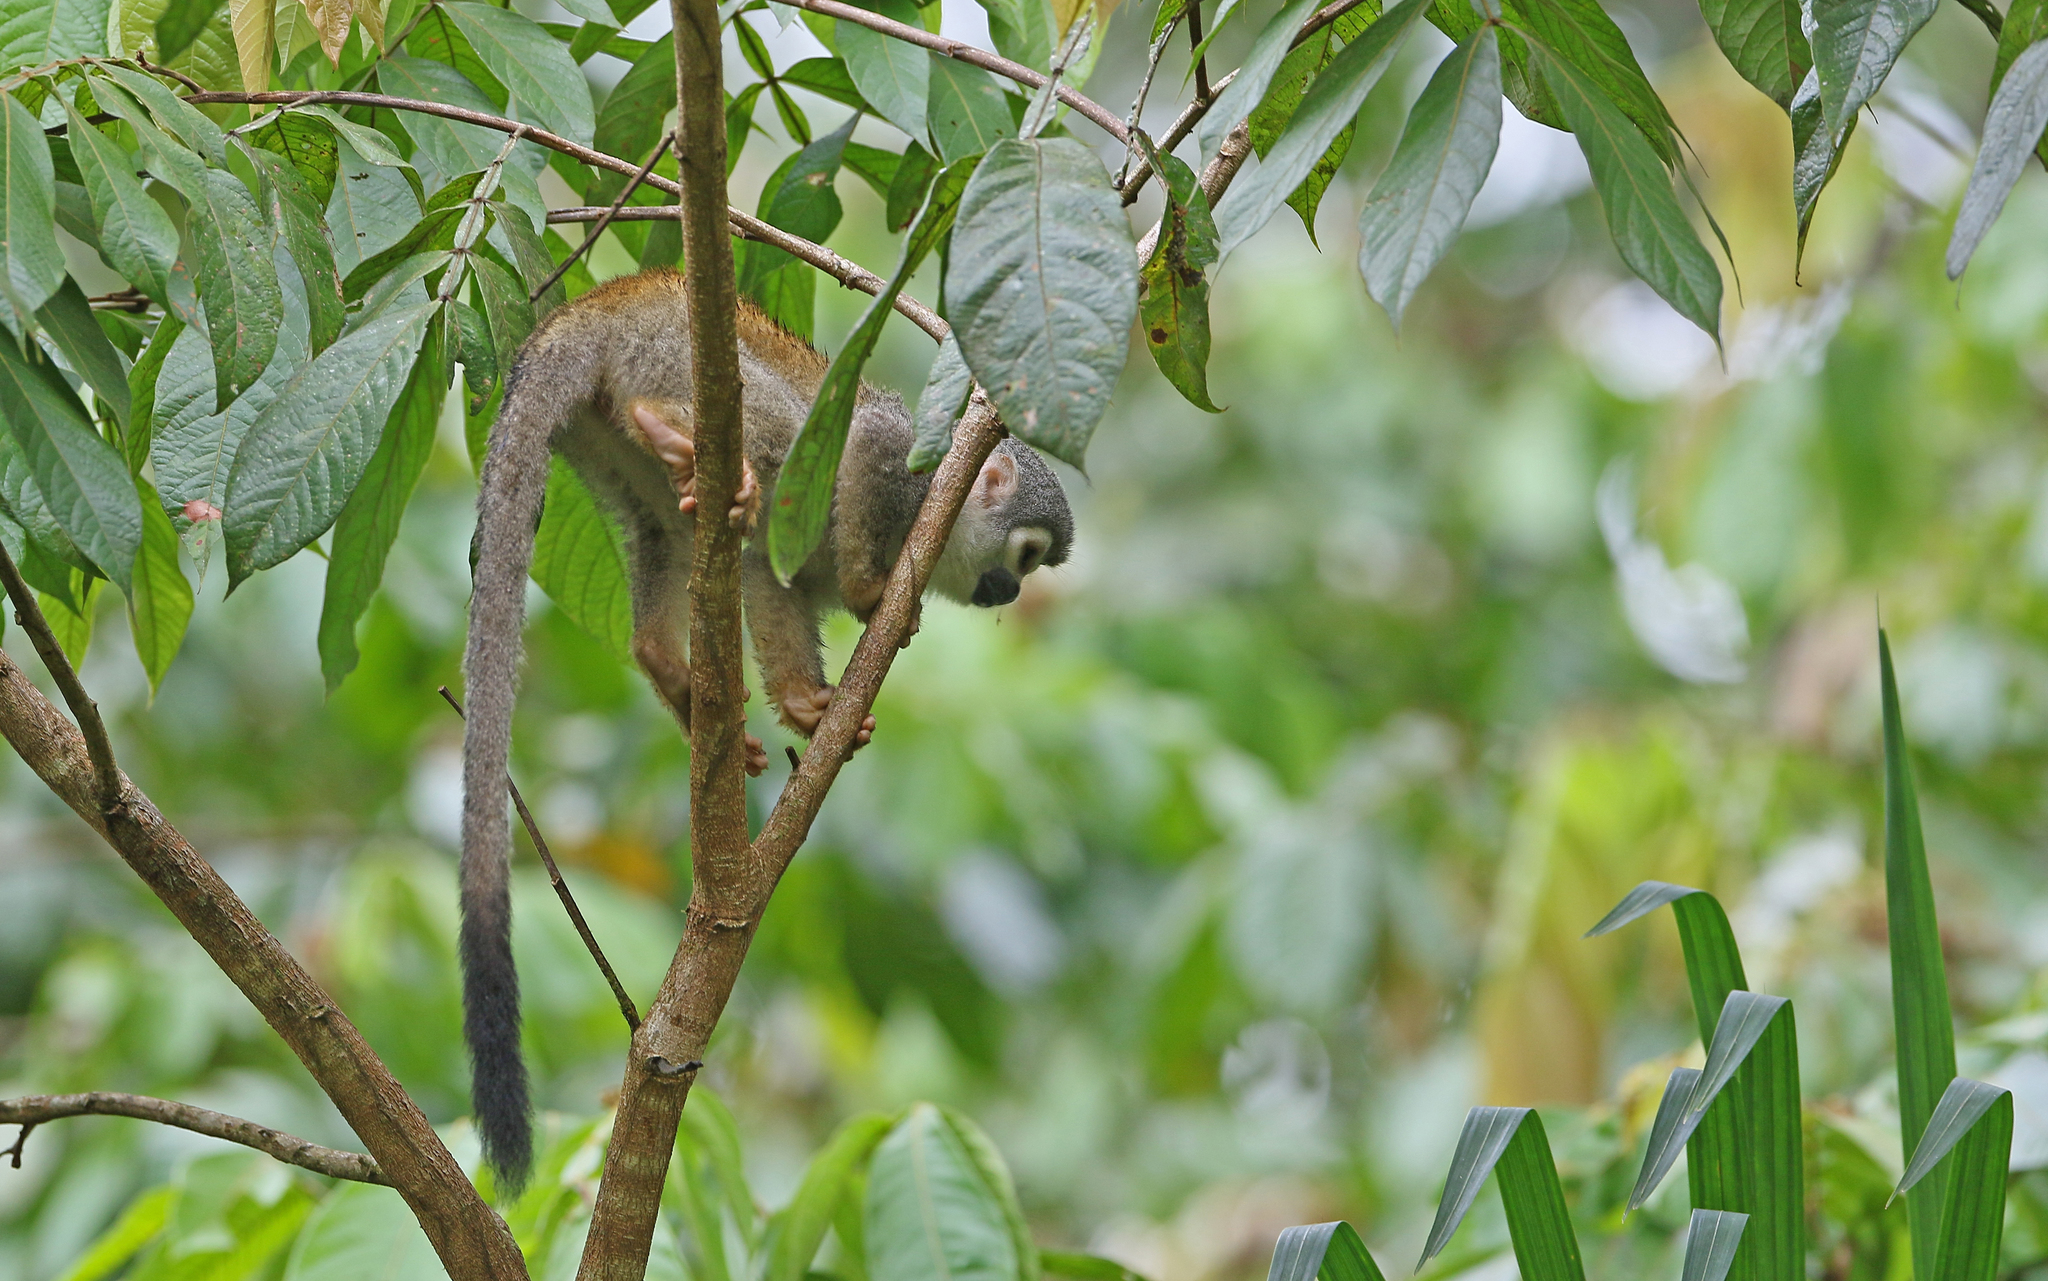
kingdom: Animalia
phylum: Chordata
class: Mammalia
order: Primates
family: Cebidae
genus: Saimiri
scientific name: Saimiri cassiquiarensis
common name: Humboldt’s squirrel monkey
